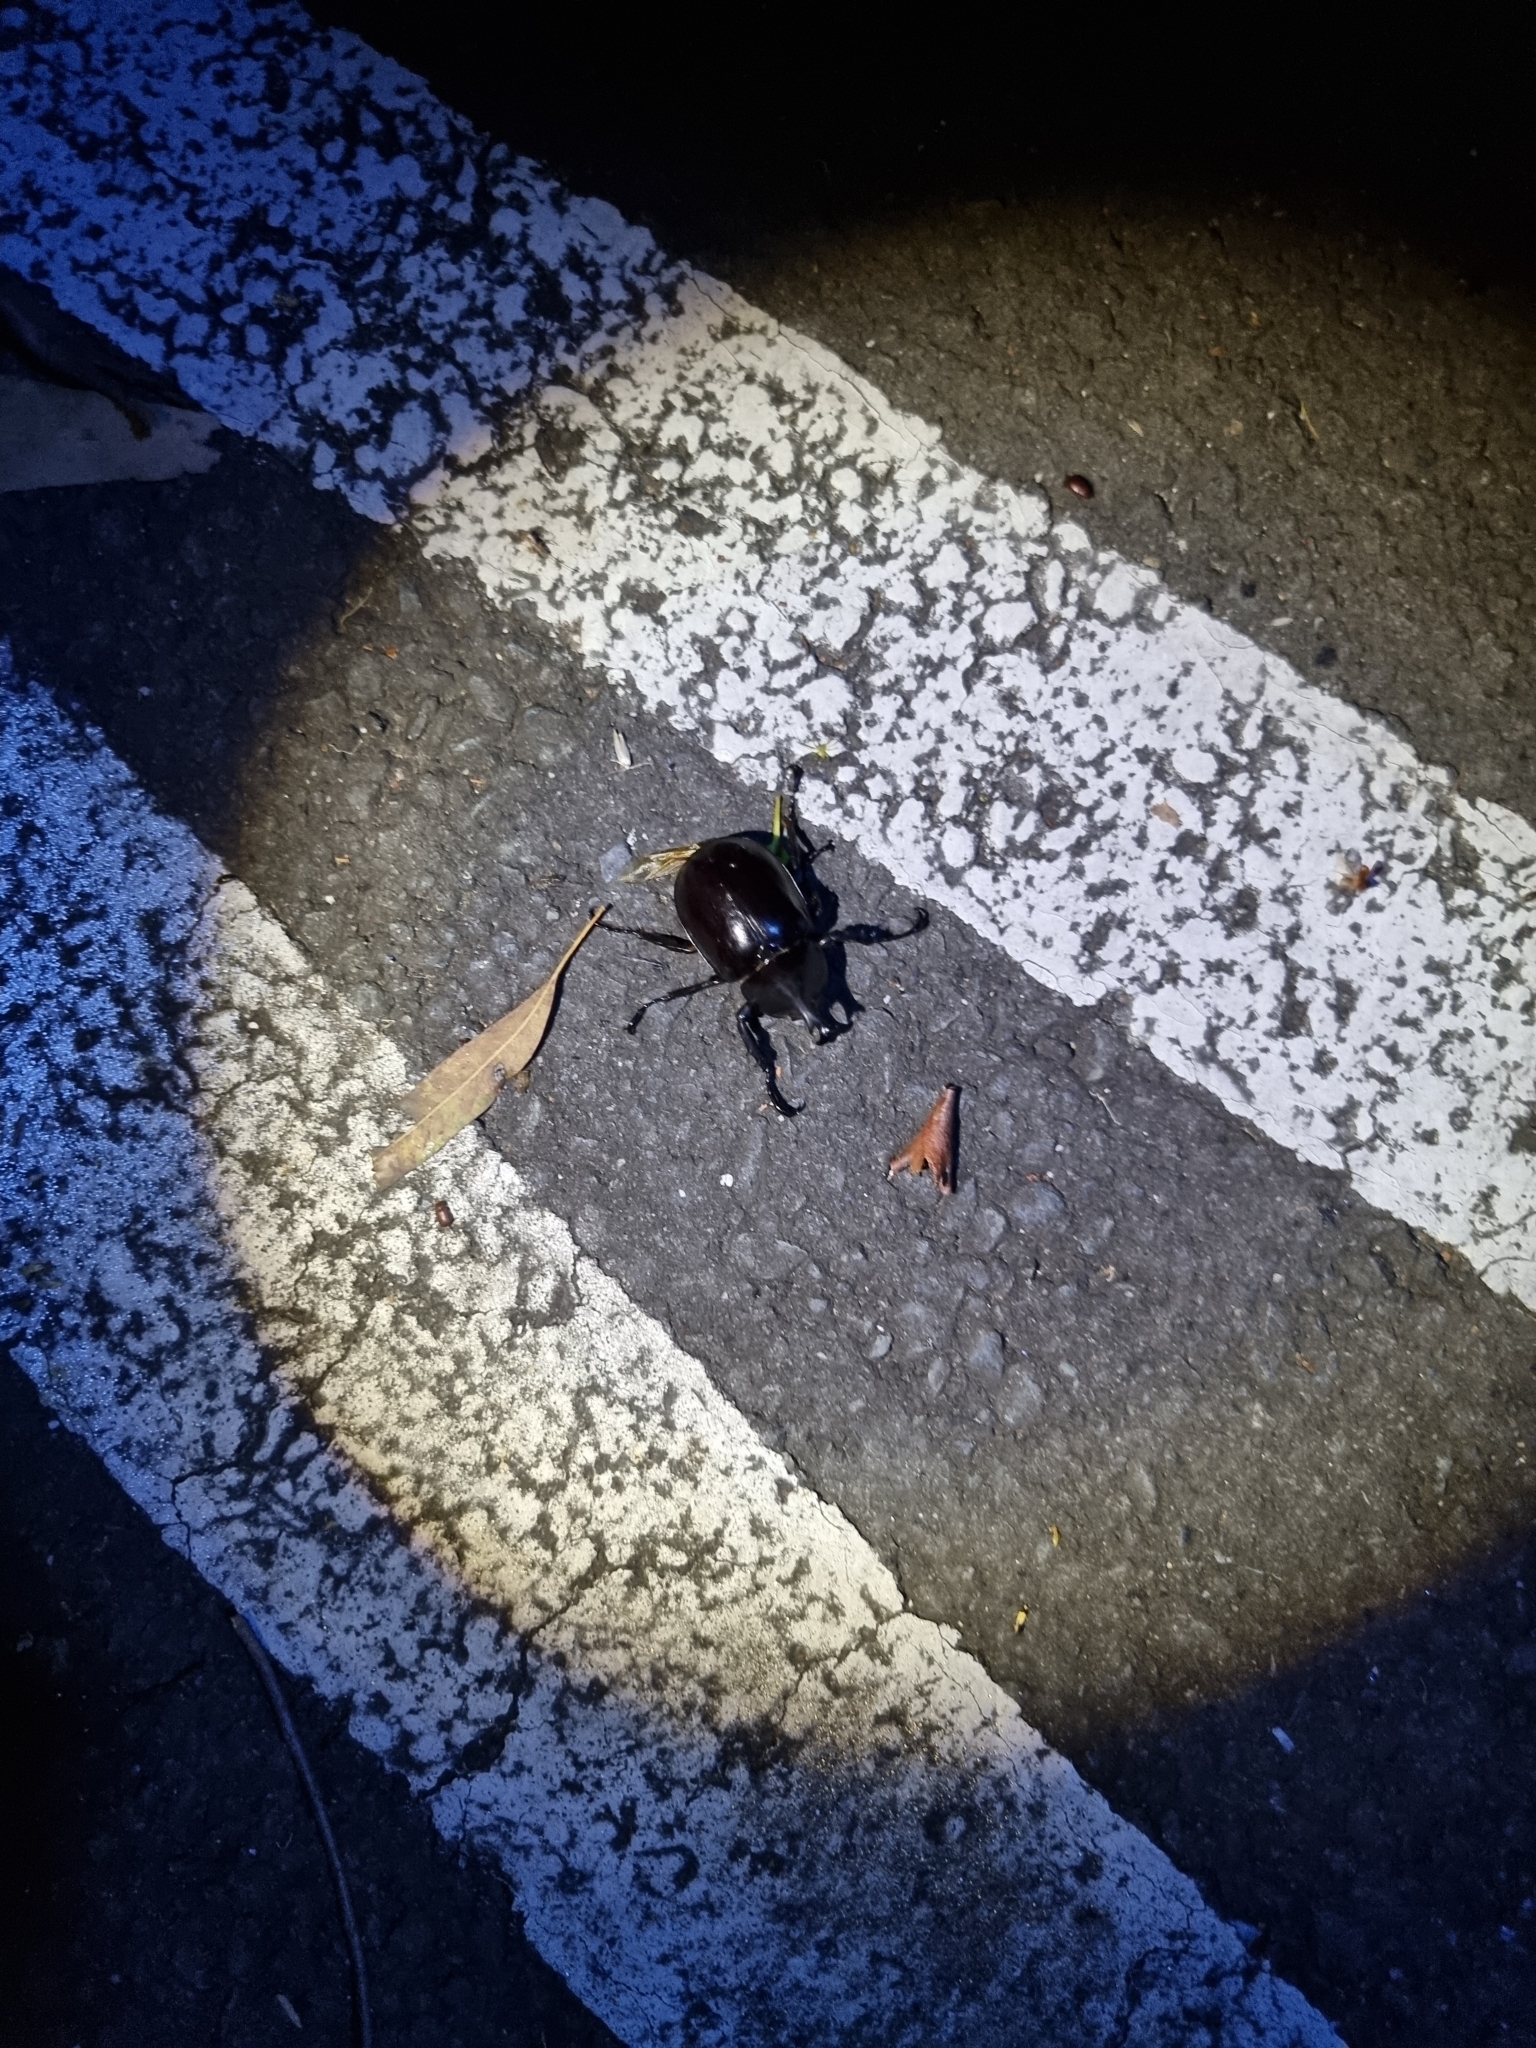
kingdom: Animalia
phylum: Arthropoda
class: Insecta
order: Coleoptera
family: Scarabaeidae
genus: Xylotrupes
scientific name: Xylotrupes australicus
